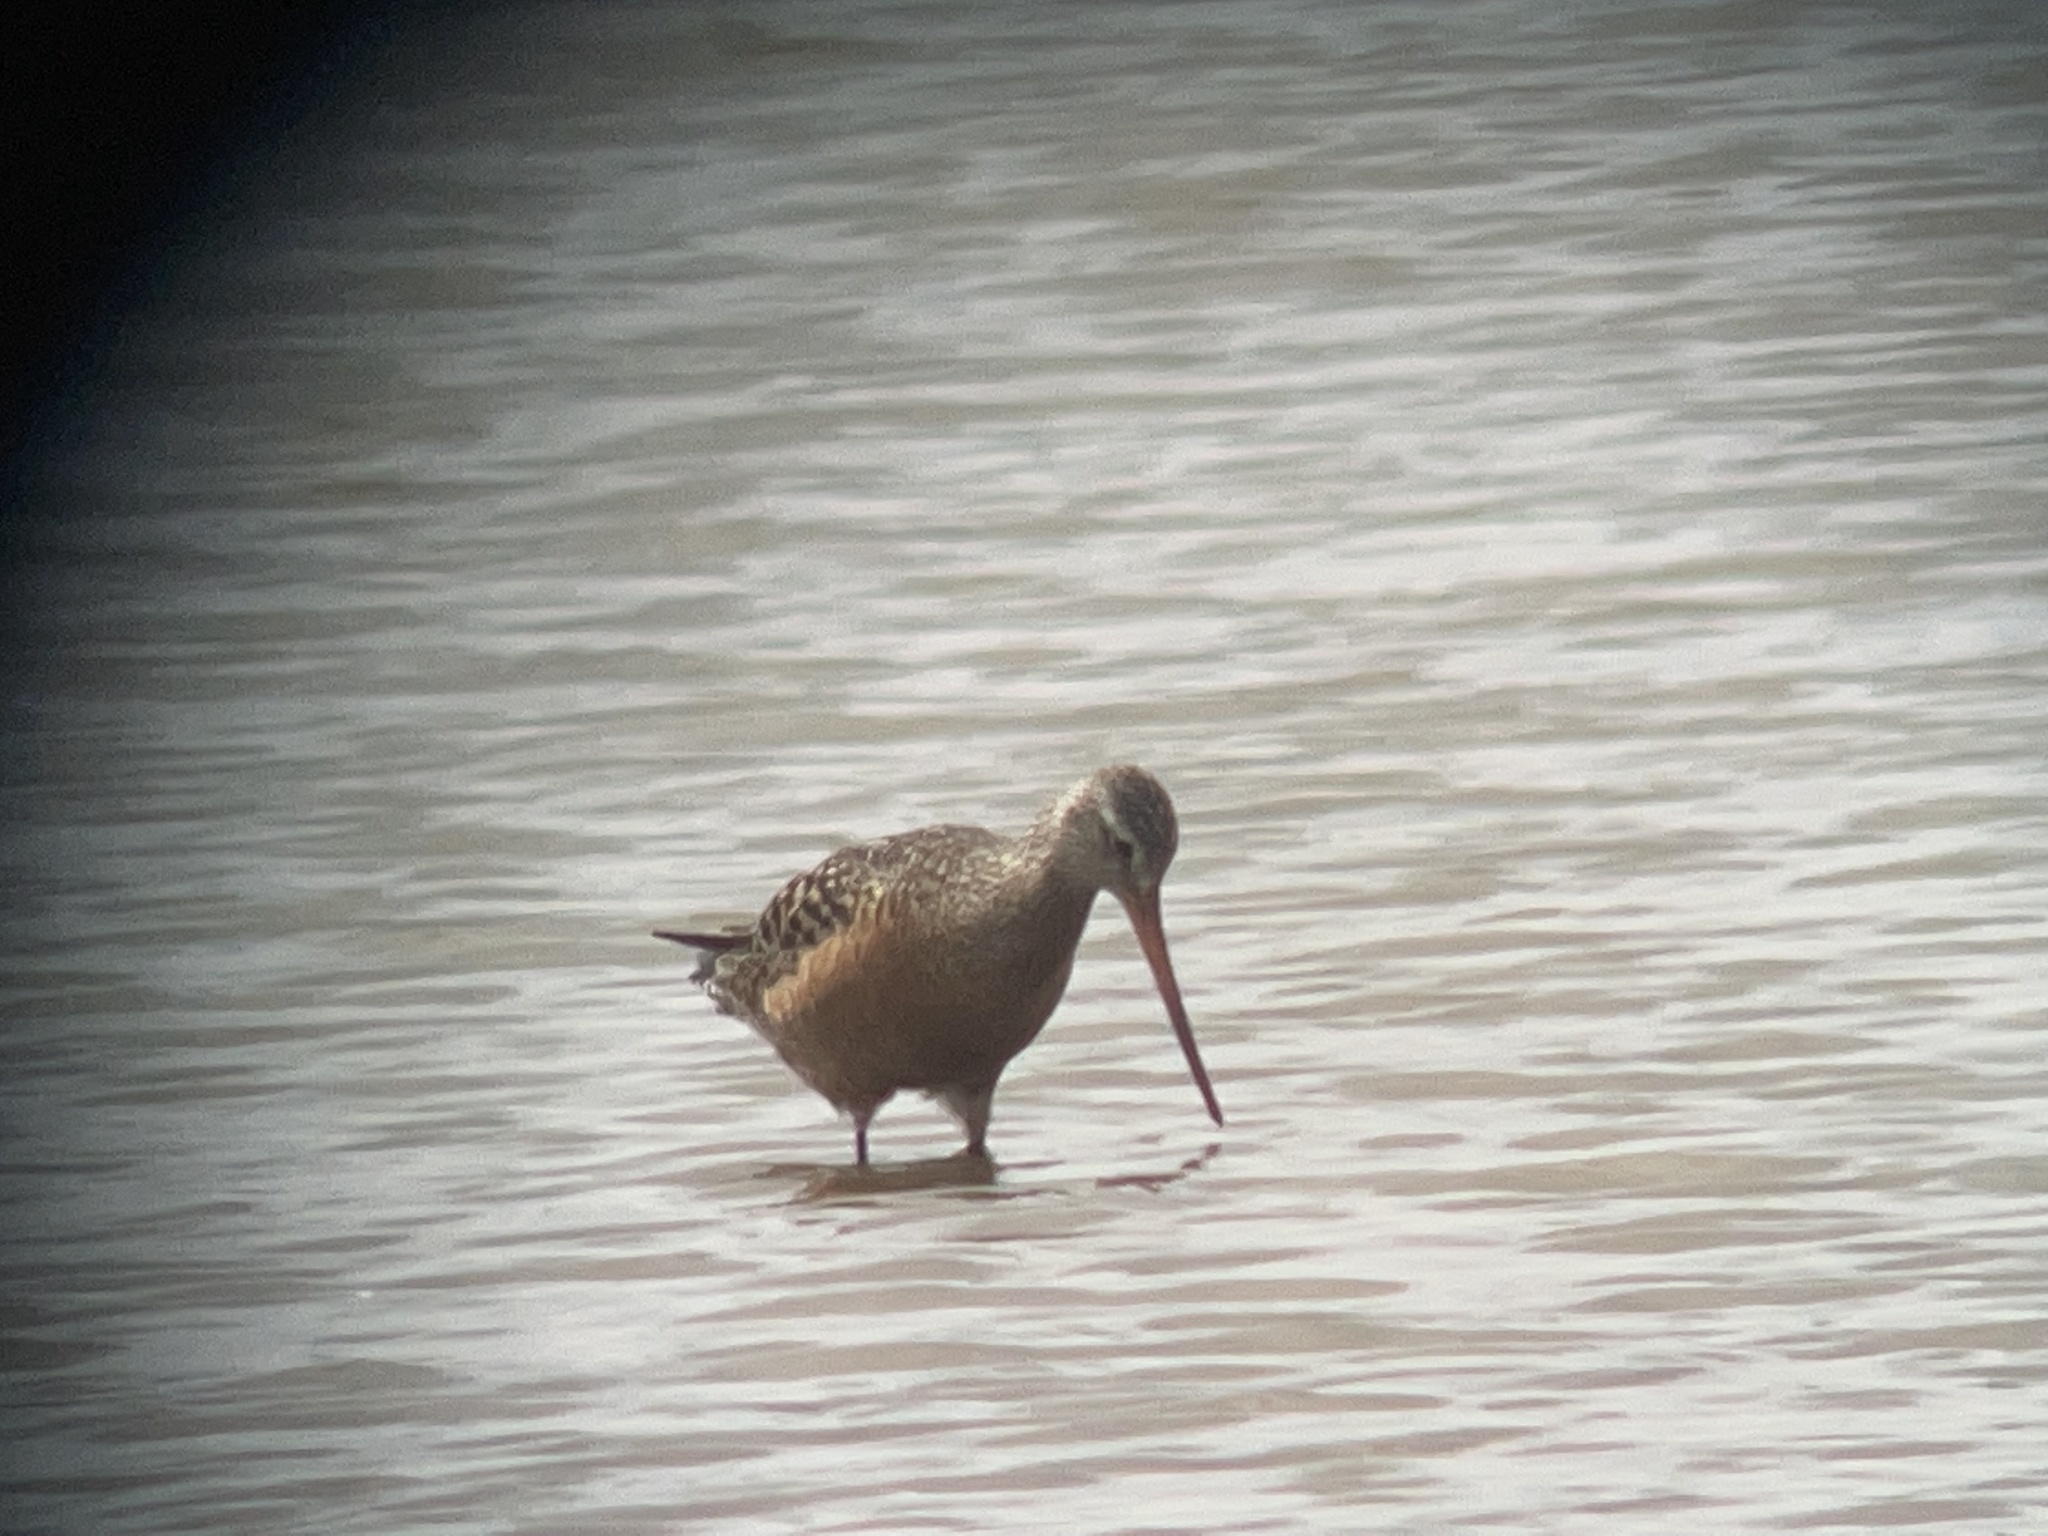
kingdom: Animalia
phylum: Chordata
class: Aves
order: Charadriiformes
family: Scolopacidae
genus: Limosa
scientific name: Limosa haemastica
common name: Hudsonian godwit
